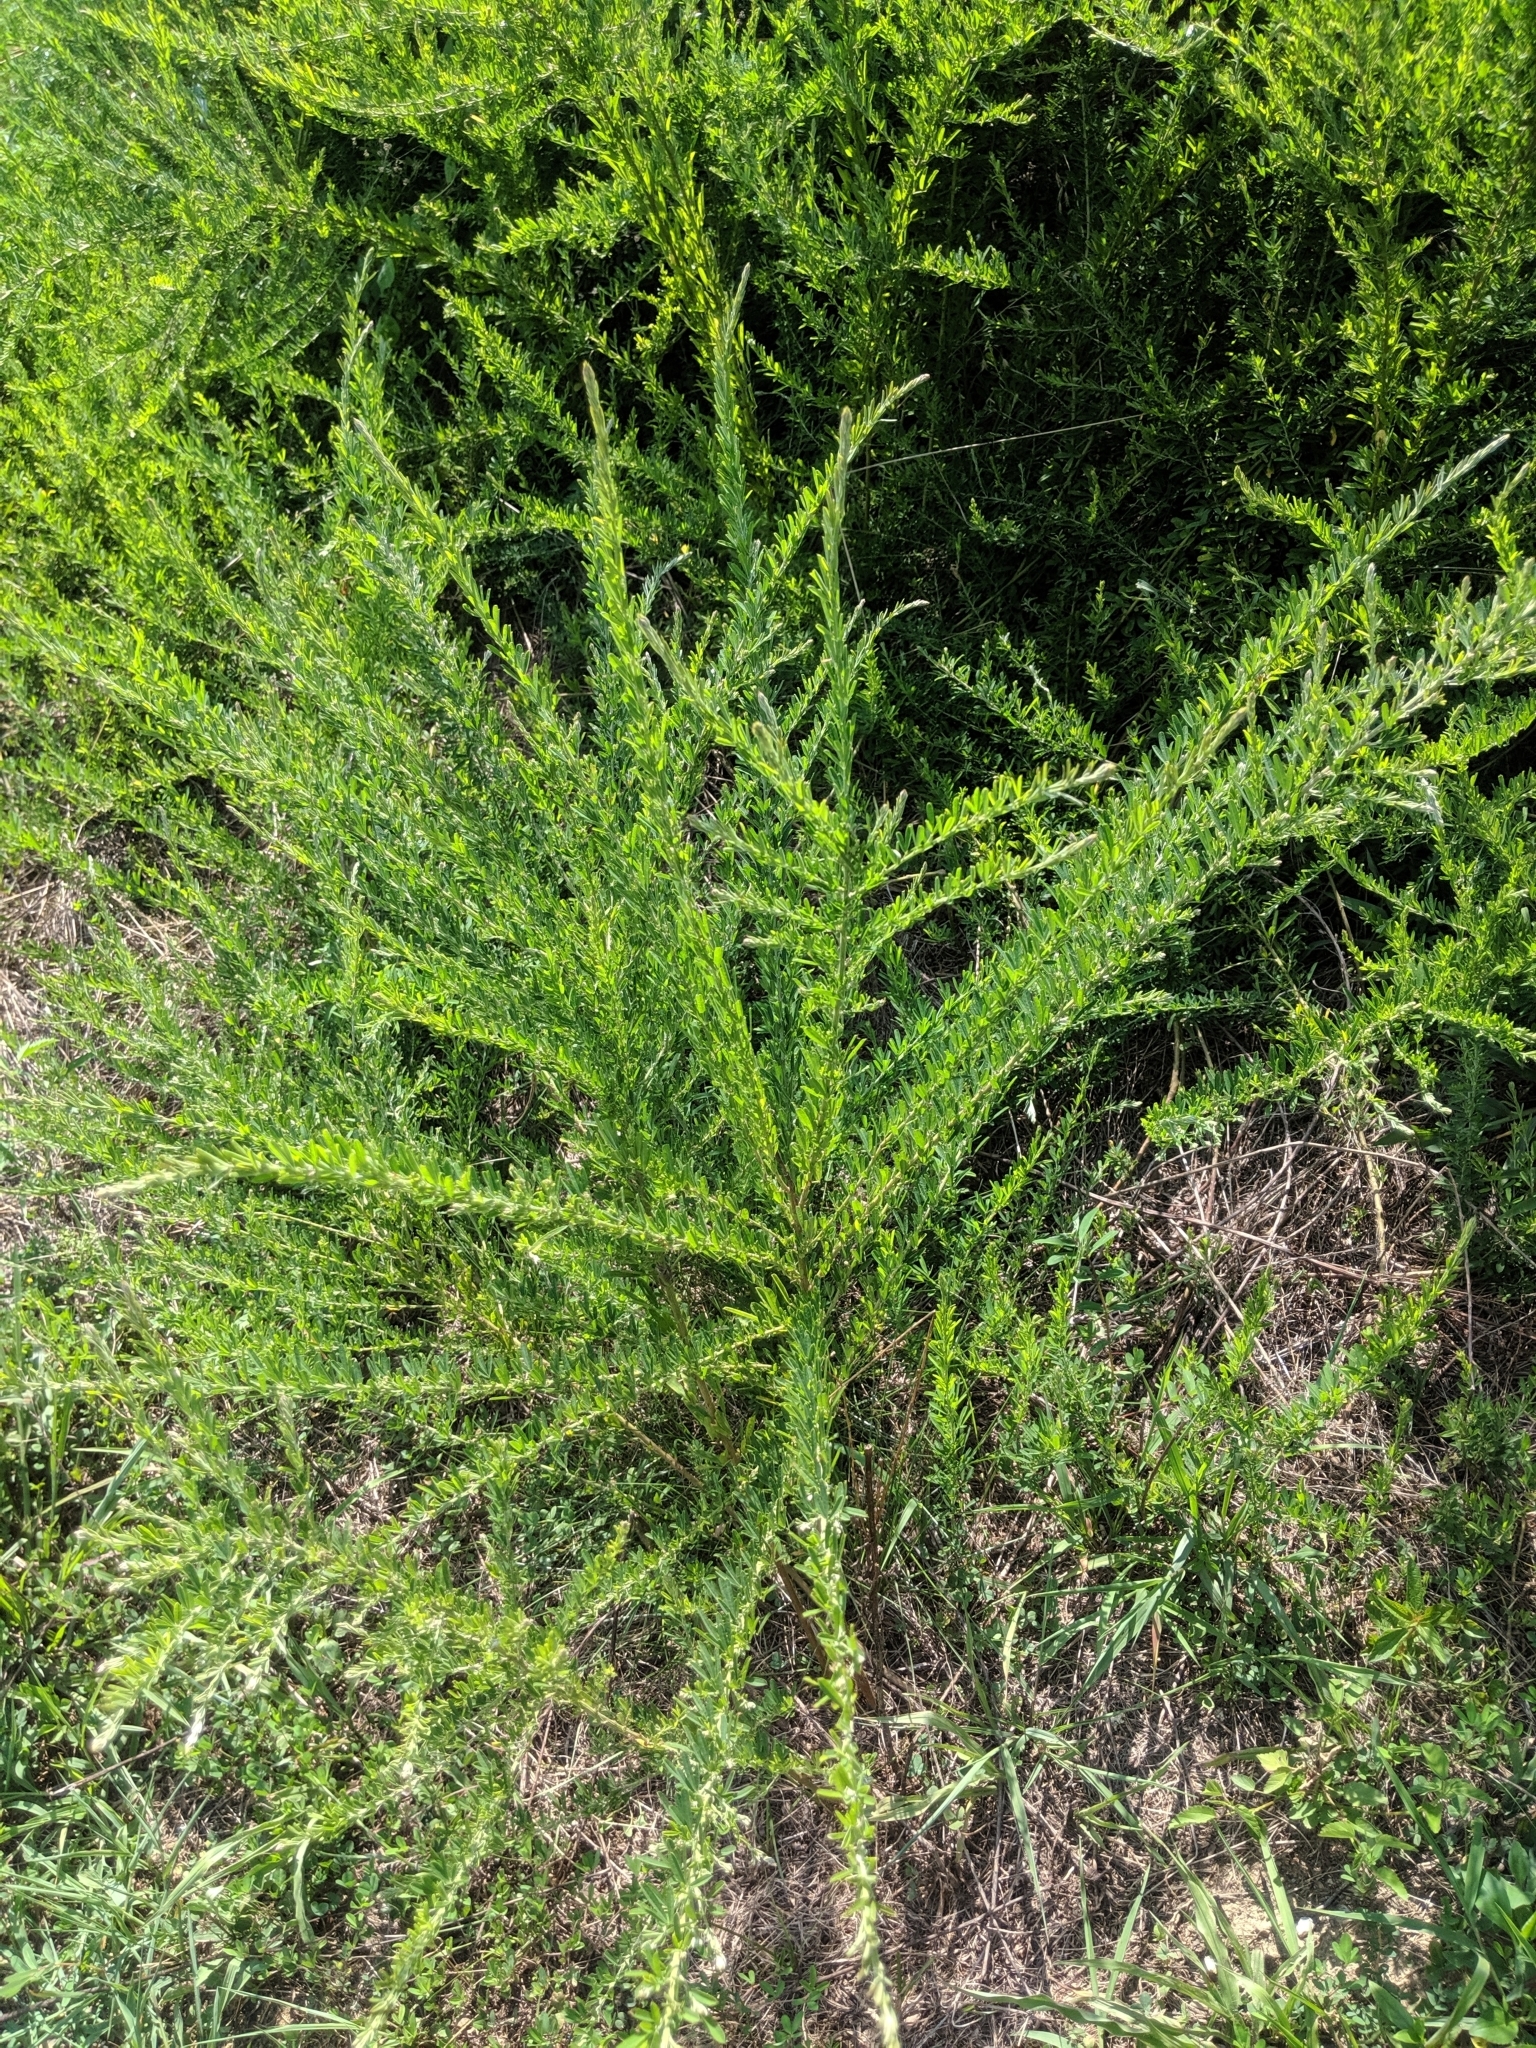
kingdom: Plantae
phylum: Tracheophyta
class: Magnoliopsida
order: Fabales
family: Fabaceae
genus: Lespedeza
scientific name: Lespedeza cuneata
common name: Chinese bush-clover
